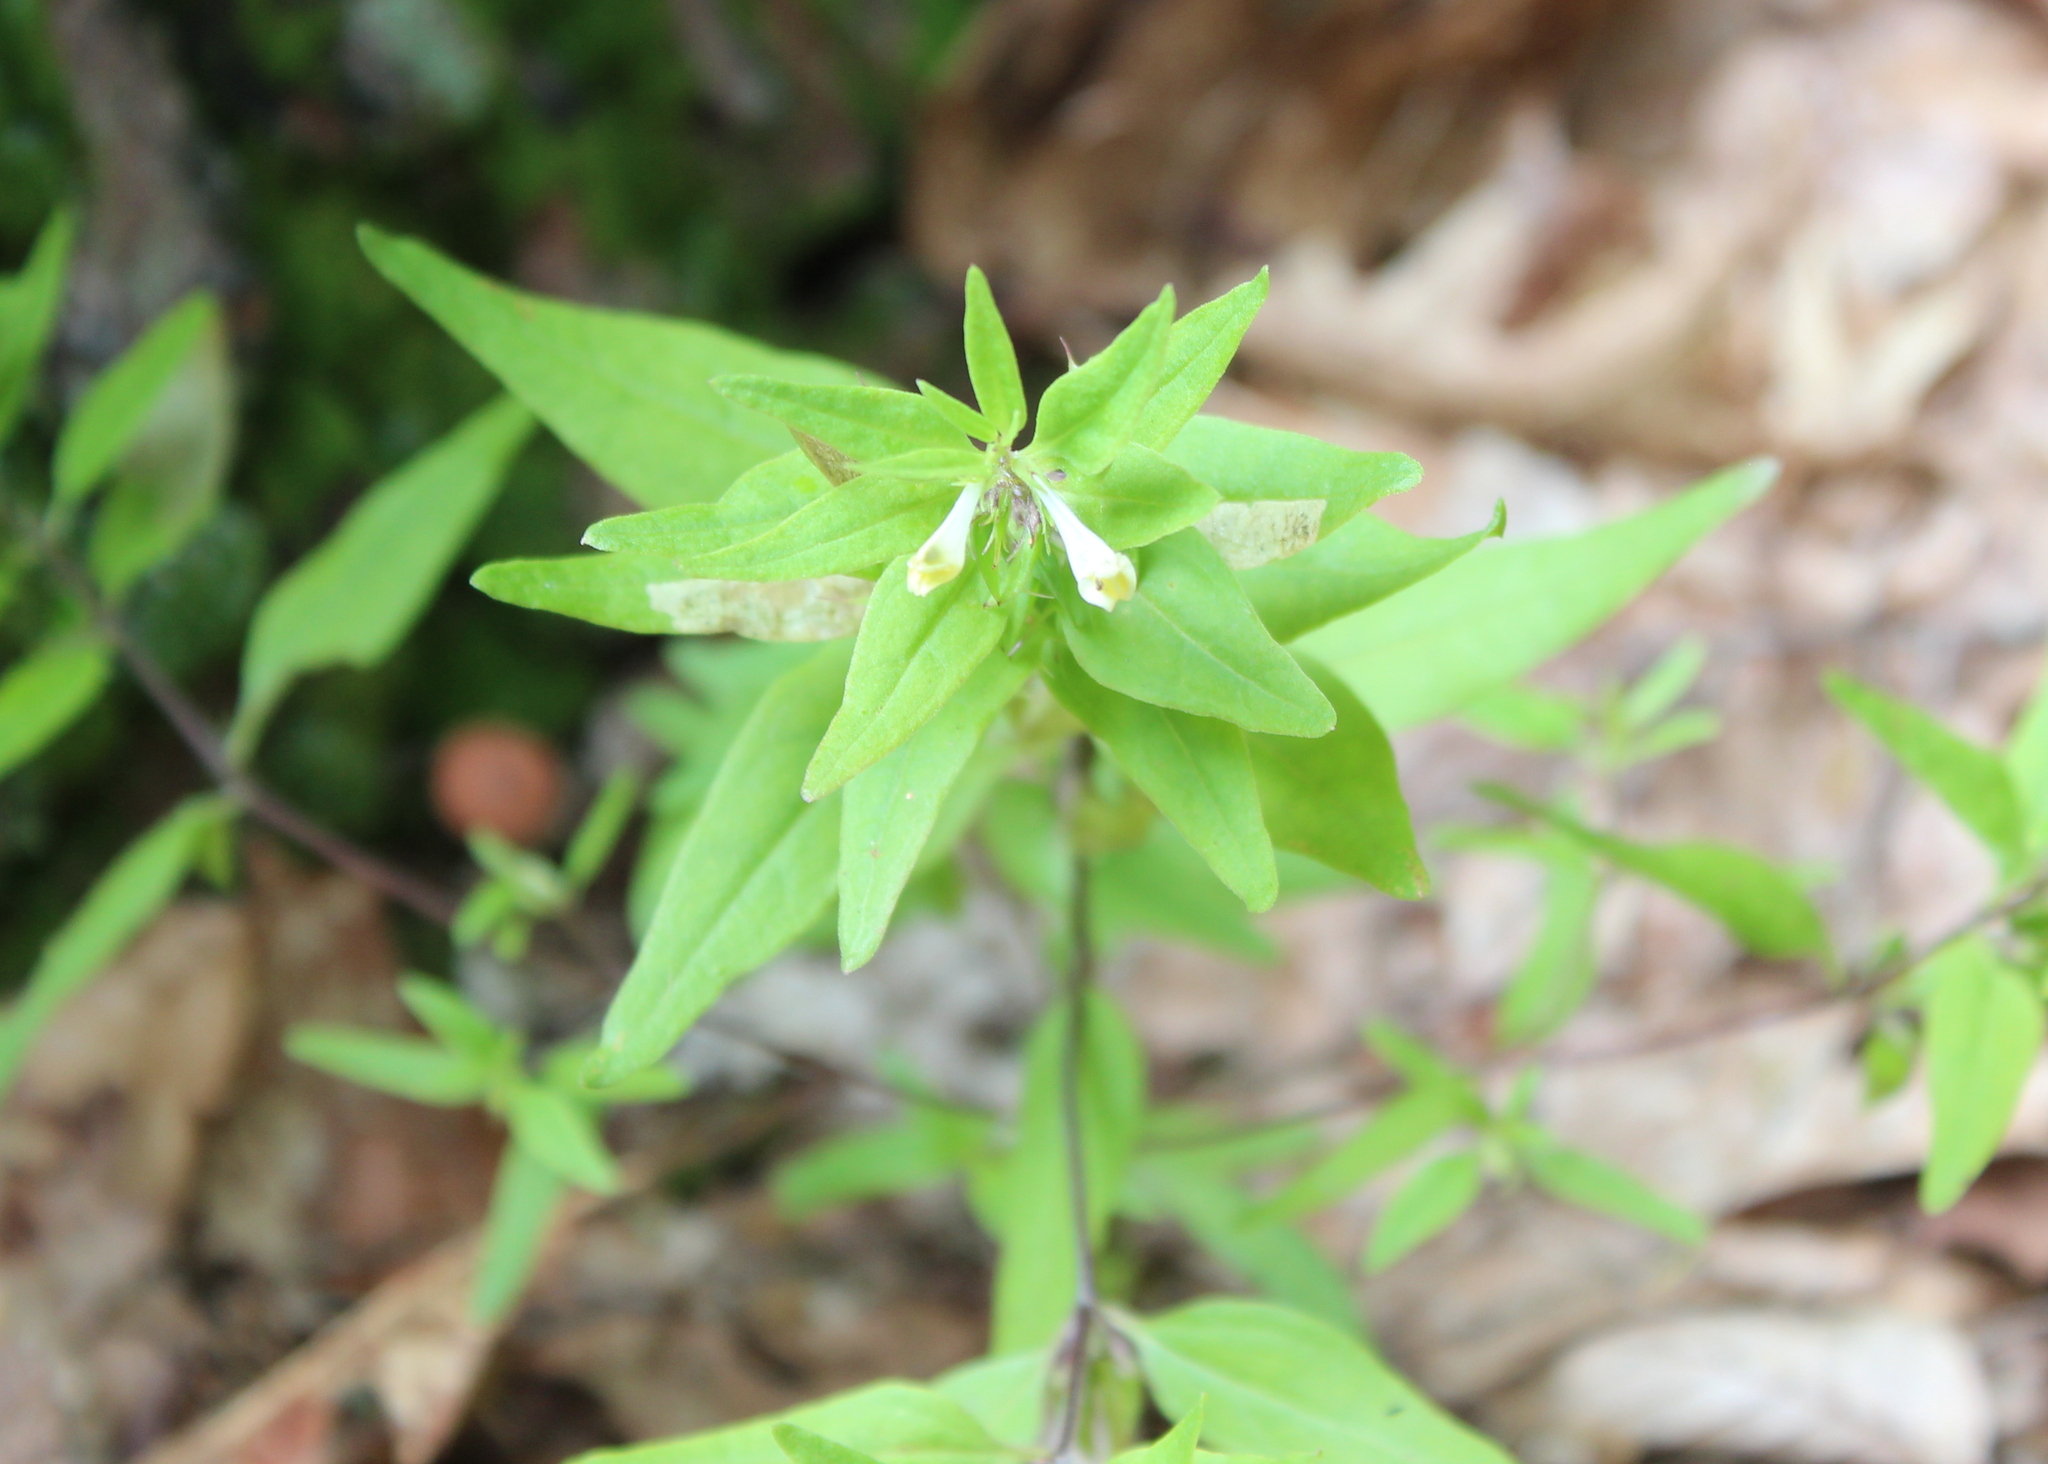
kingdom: Plantae
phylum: Tracheophyta
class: Magnoliopsida
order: Lamiales
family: Orobanchaceae
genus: Melampyrum
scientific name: Melampyrum lineare
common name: American cow-wheat
